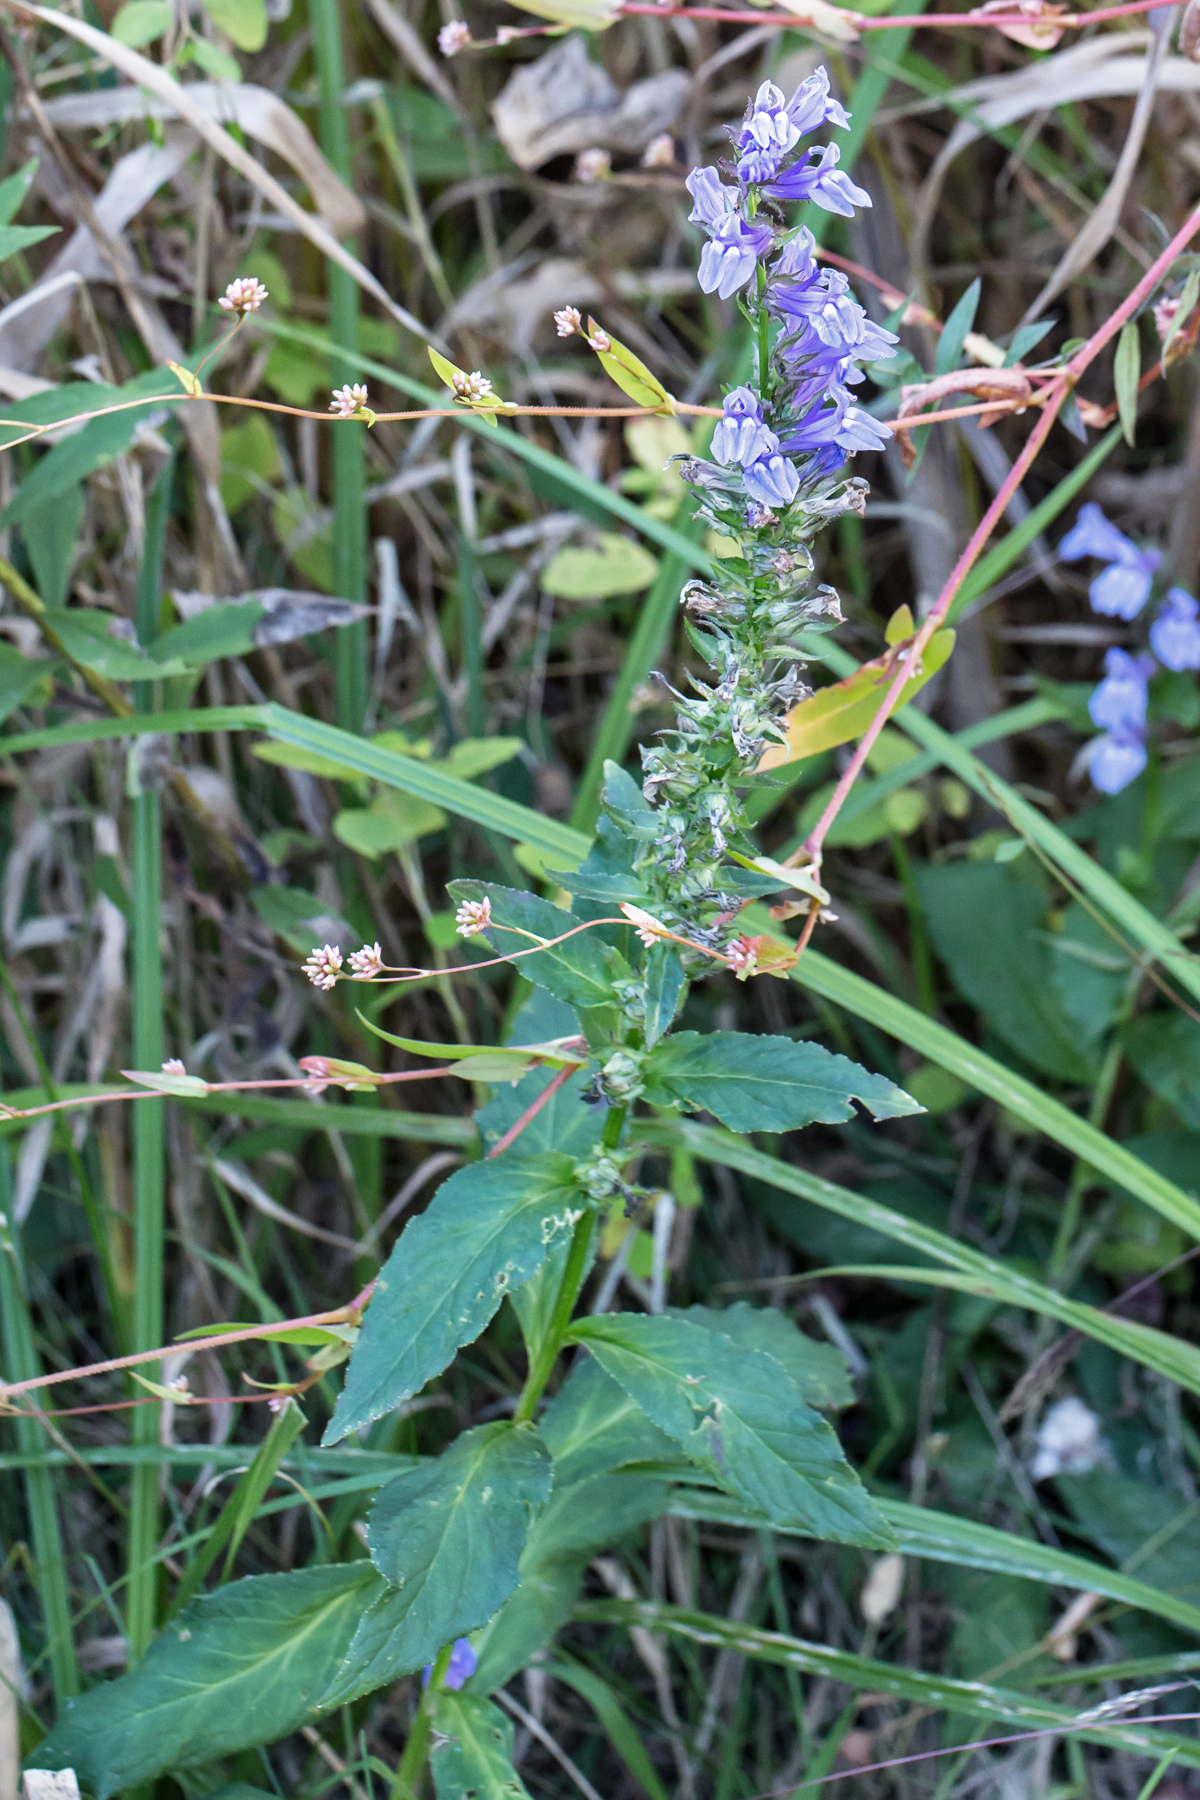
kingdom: Plantae
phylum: Tracheophyta
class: Magnoliopsida
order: Asterales
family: Campanulaceae
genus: Lobelia
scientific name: Lobelia siphilitica
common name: Great lobelia
